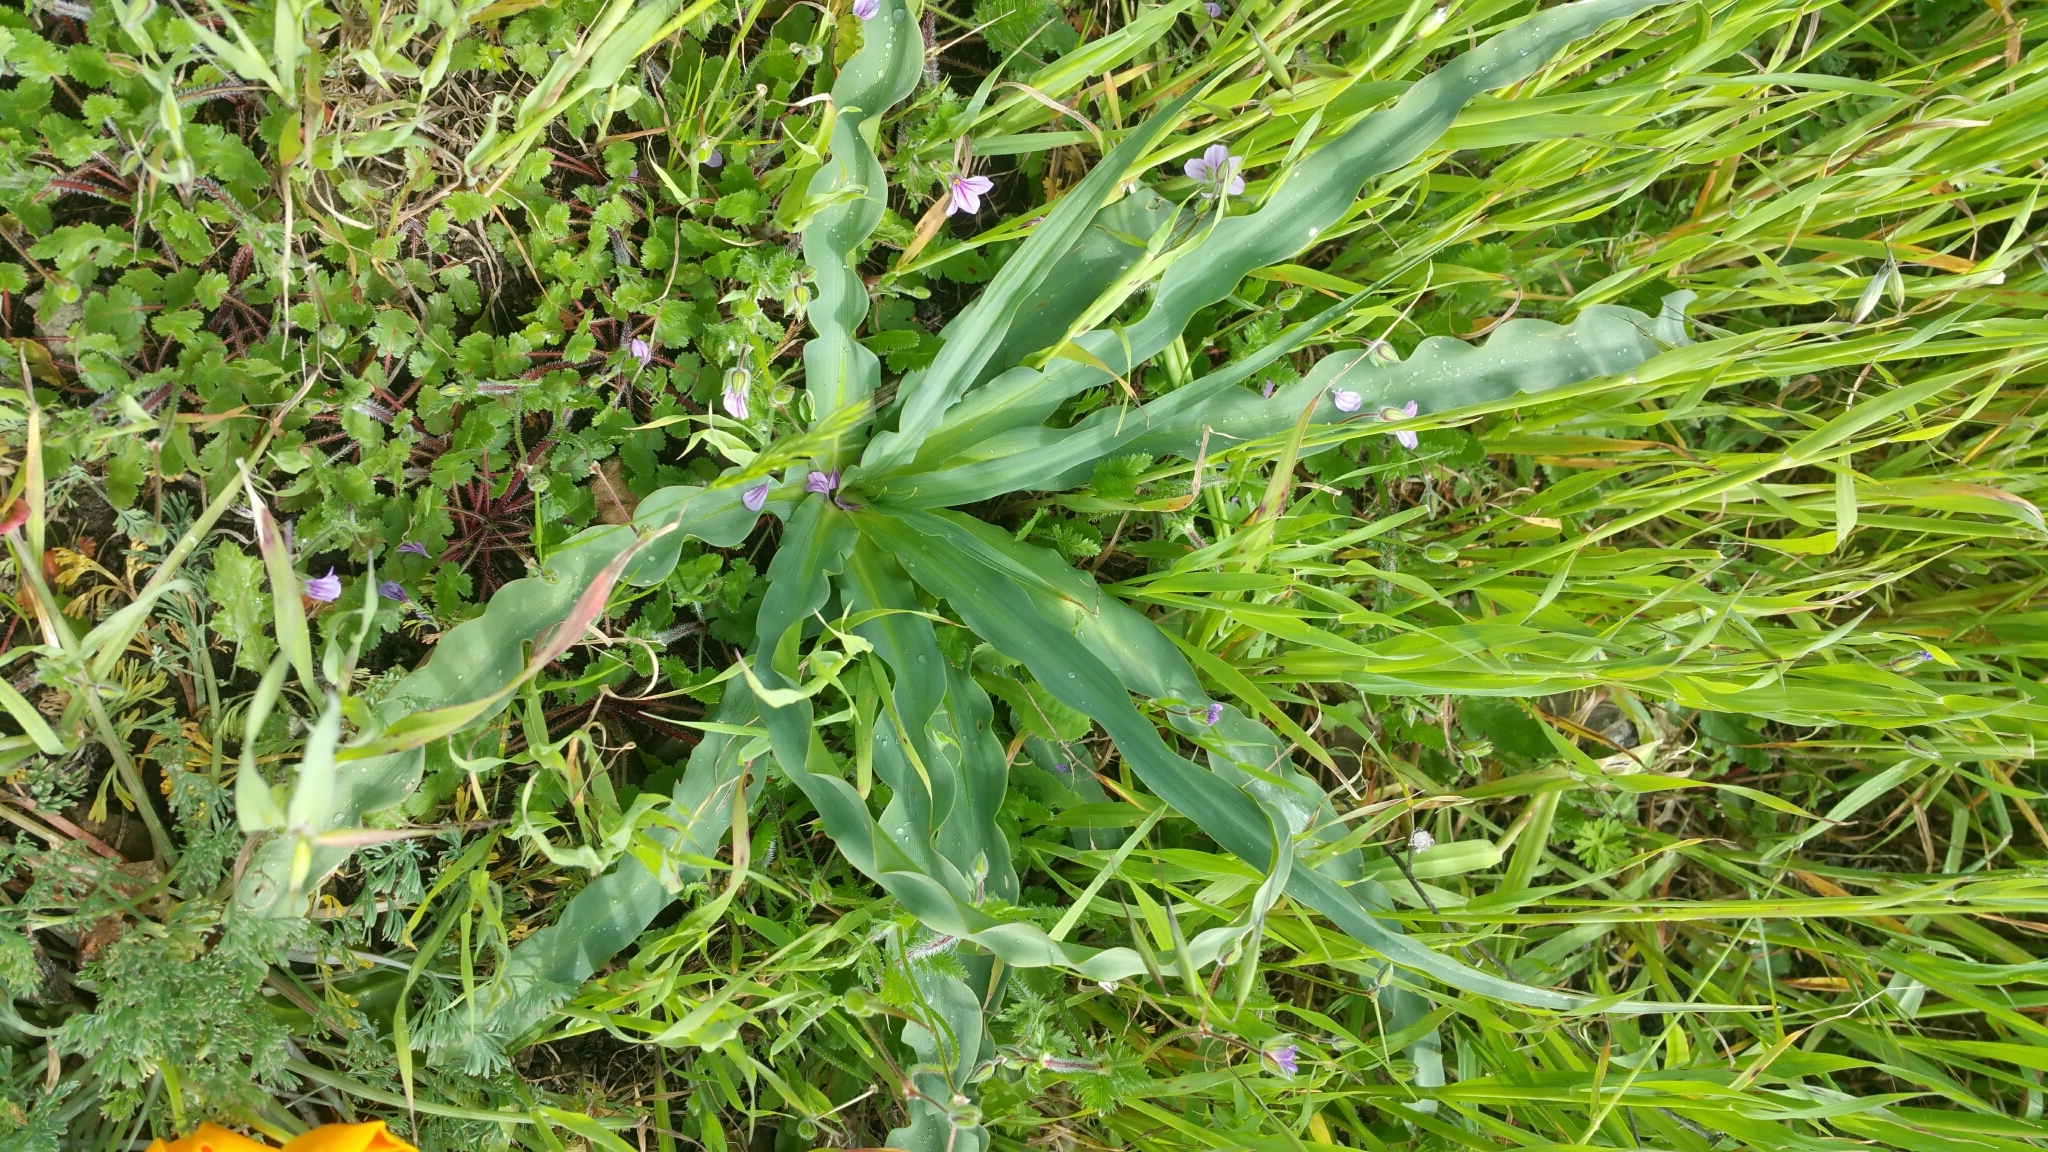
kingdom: Plantae
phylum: Tracheophyta
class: Liliopsida
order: Asparagales
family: Asparagaceae
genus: Chlorogalum
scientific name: Chlorogalum pomeridianum
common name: Amole
